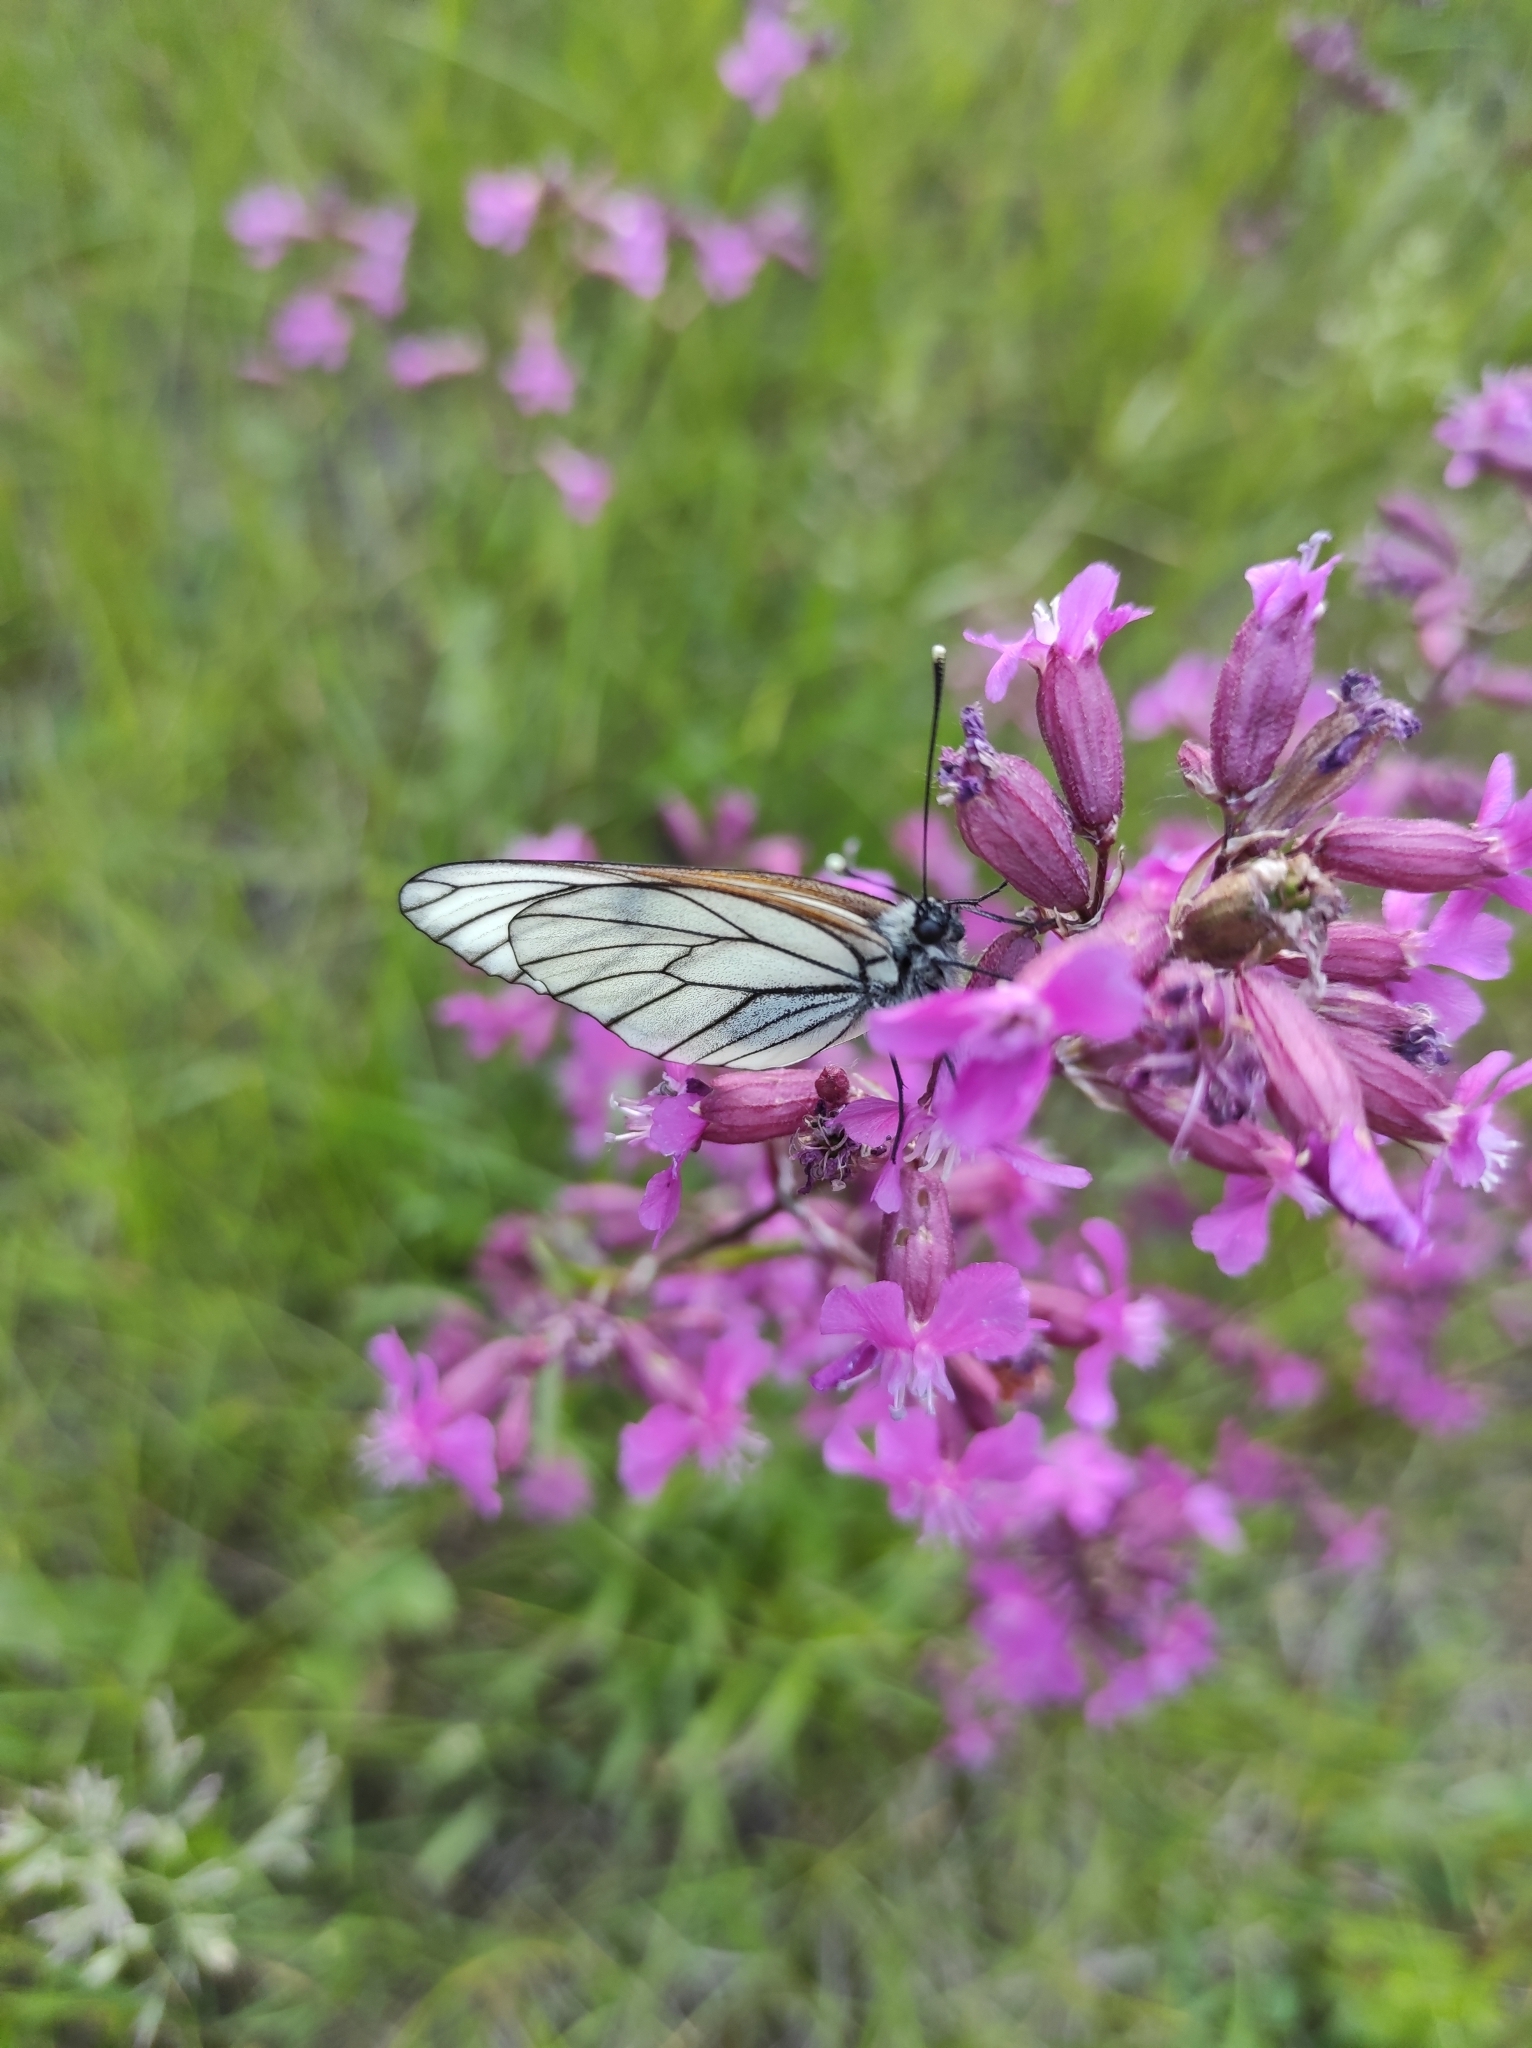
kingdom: Animalia
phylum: Arthropoda
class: Insecta
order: Lepidoptera
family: Pieridae
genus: Aporia
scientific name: Aporia crataegi
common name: Black-veined white
